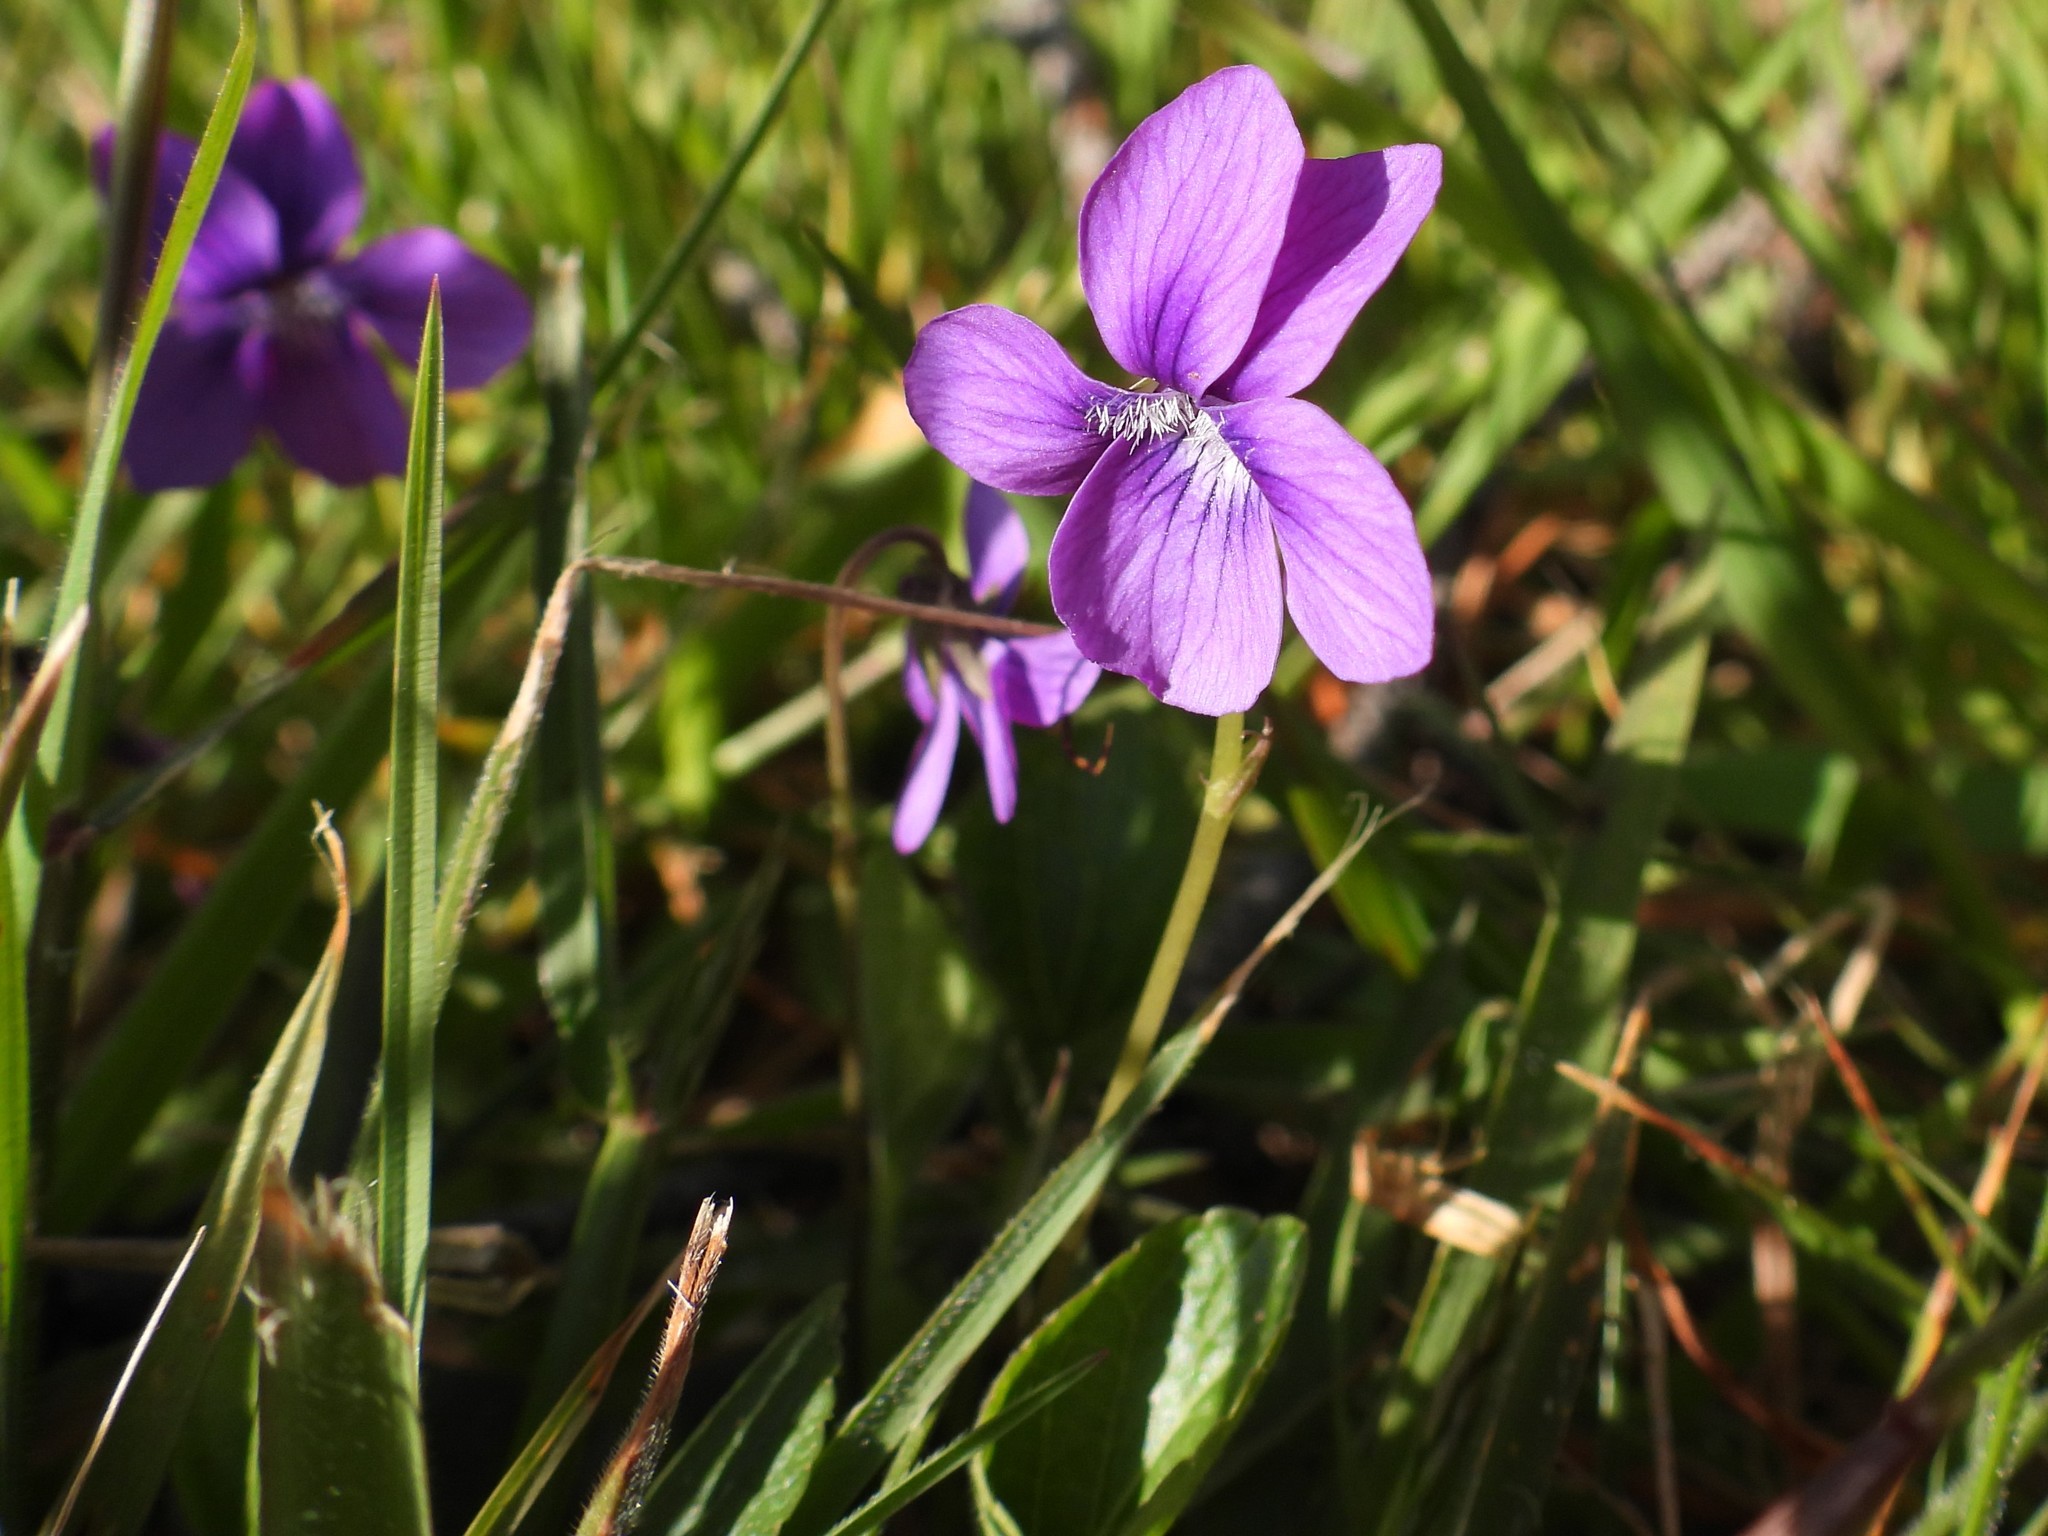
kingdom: Plantae
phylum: Tracheophyta
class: Magnoliopsida
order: Malpighiales
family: Violaceae
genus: Viola
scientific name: Viola adunca
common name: Sand violet
